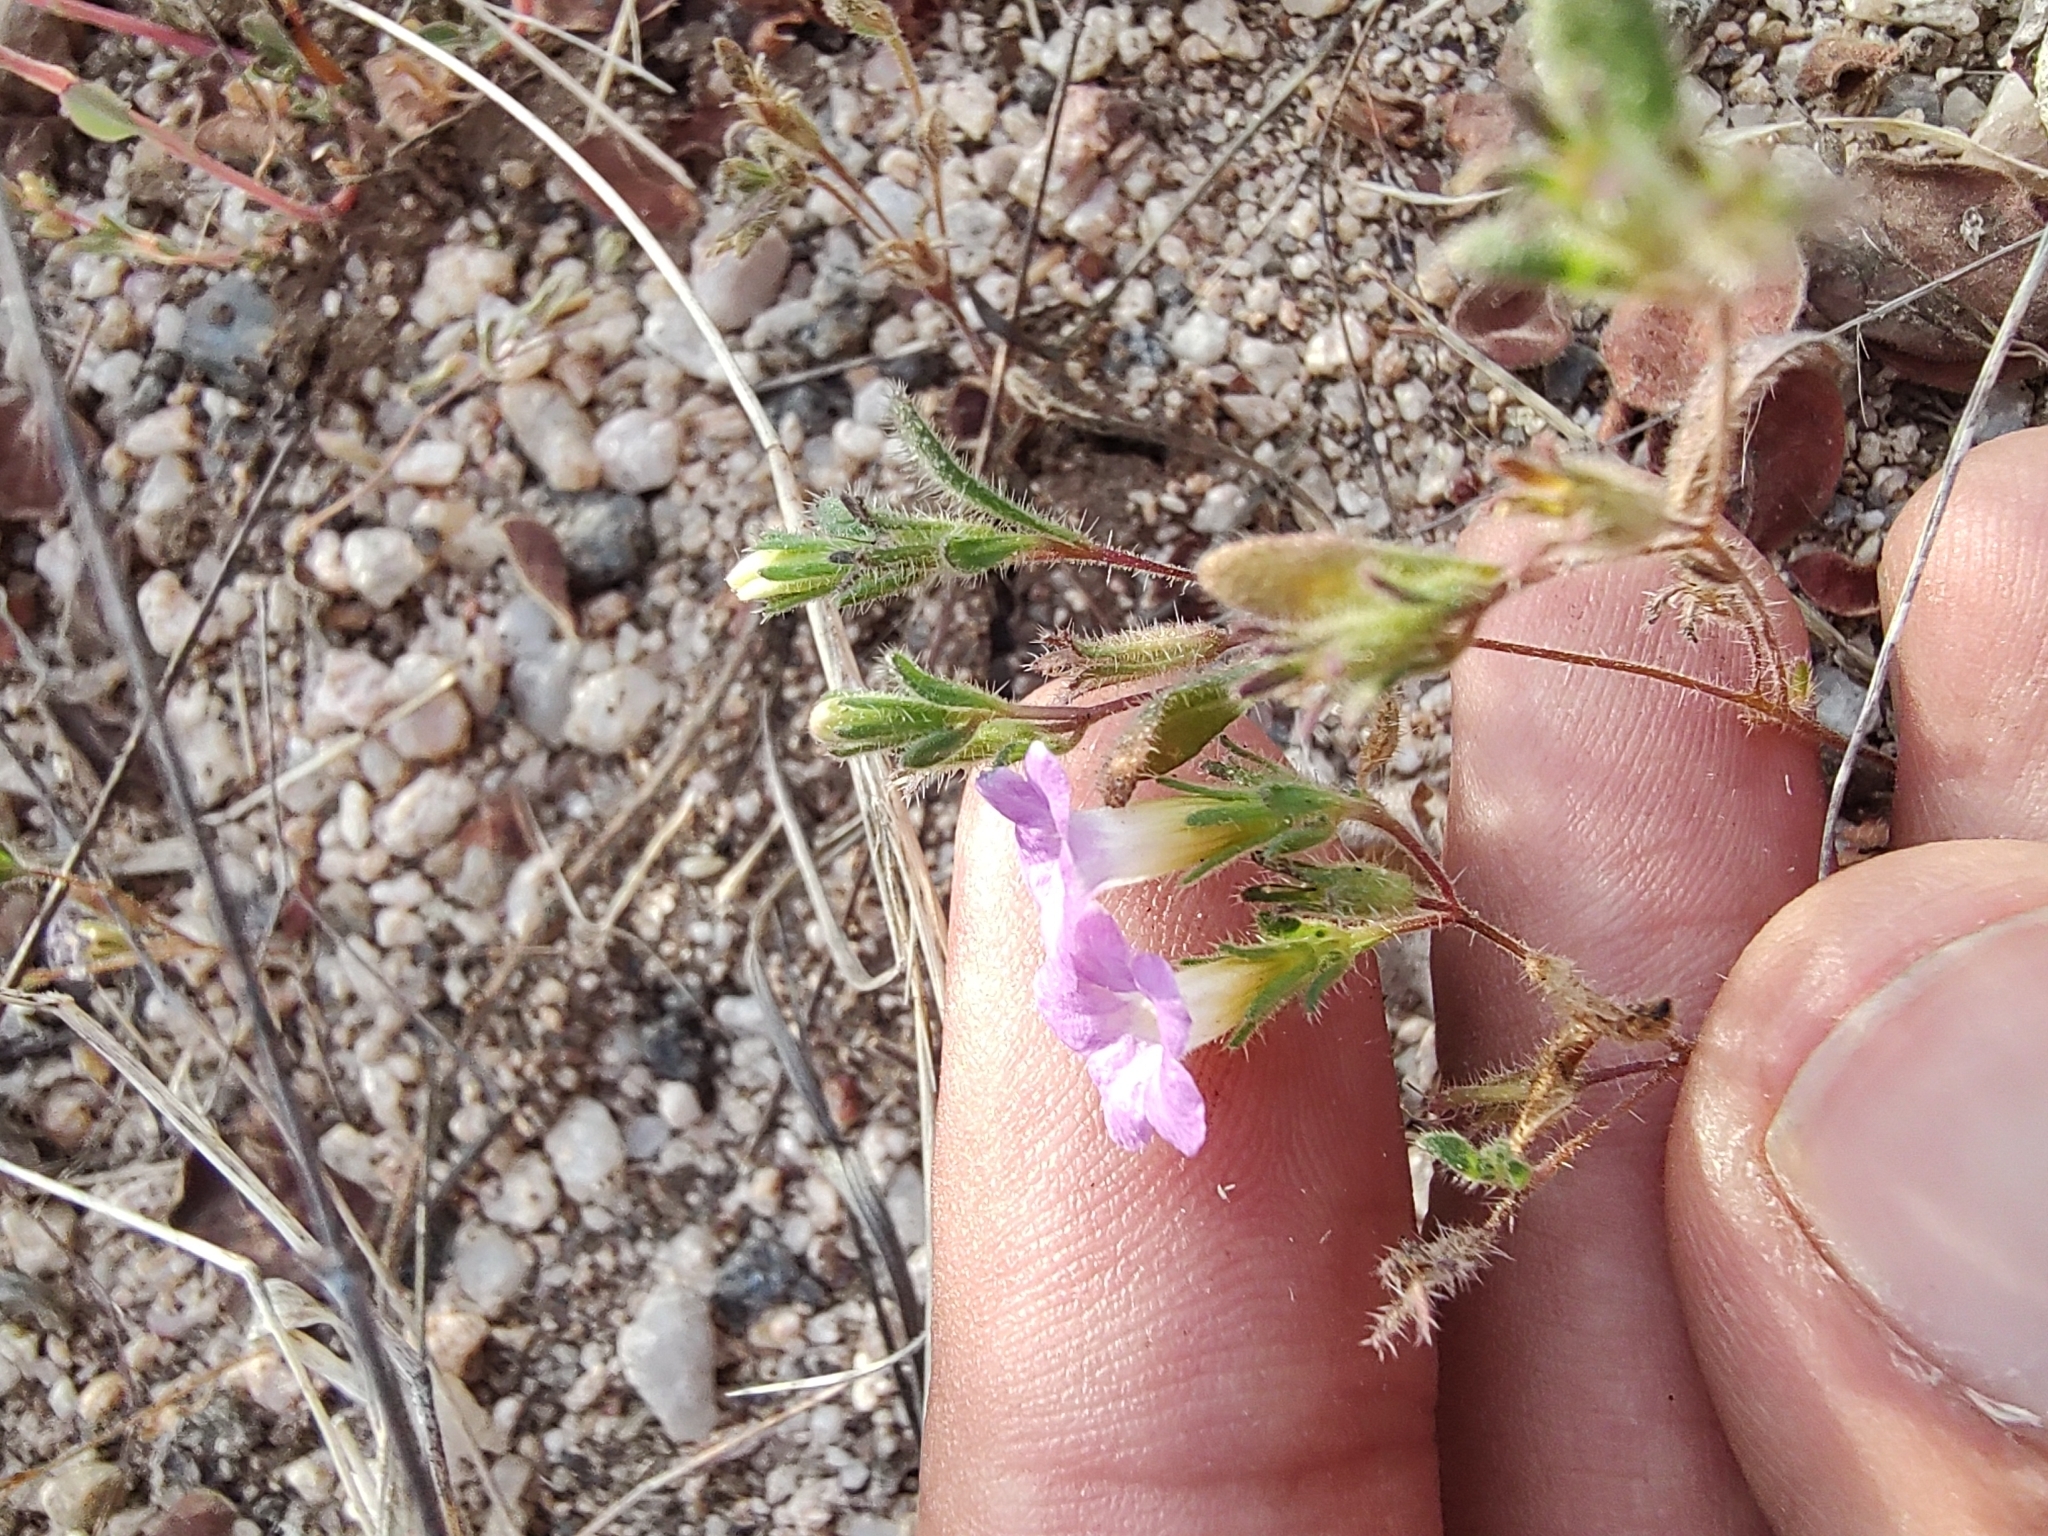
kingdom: Plantae
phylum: Tracheophyta
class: Magnoliopsida
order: Boraginales
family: Namaceae
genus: Nama
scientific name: Nama coulteri
